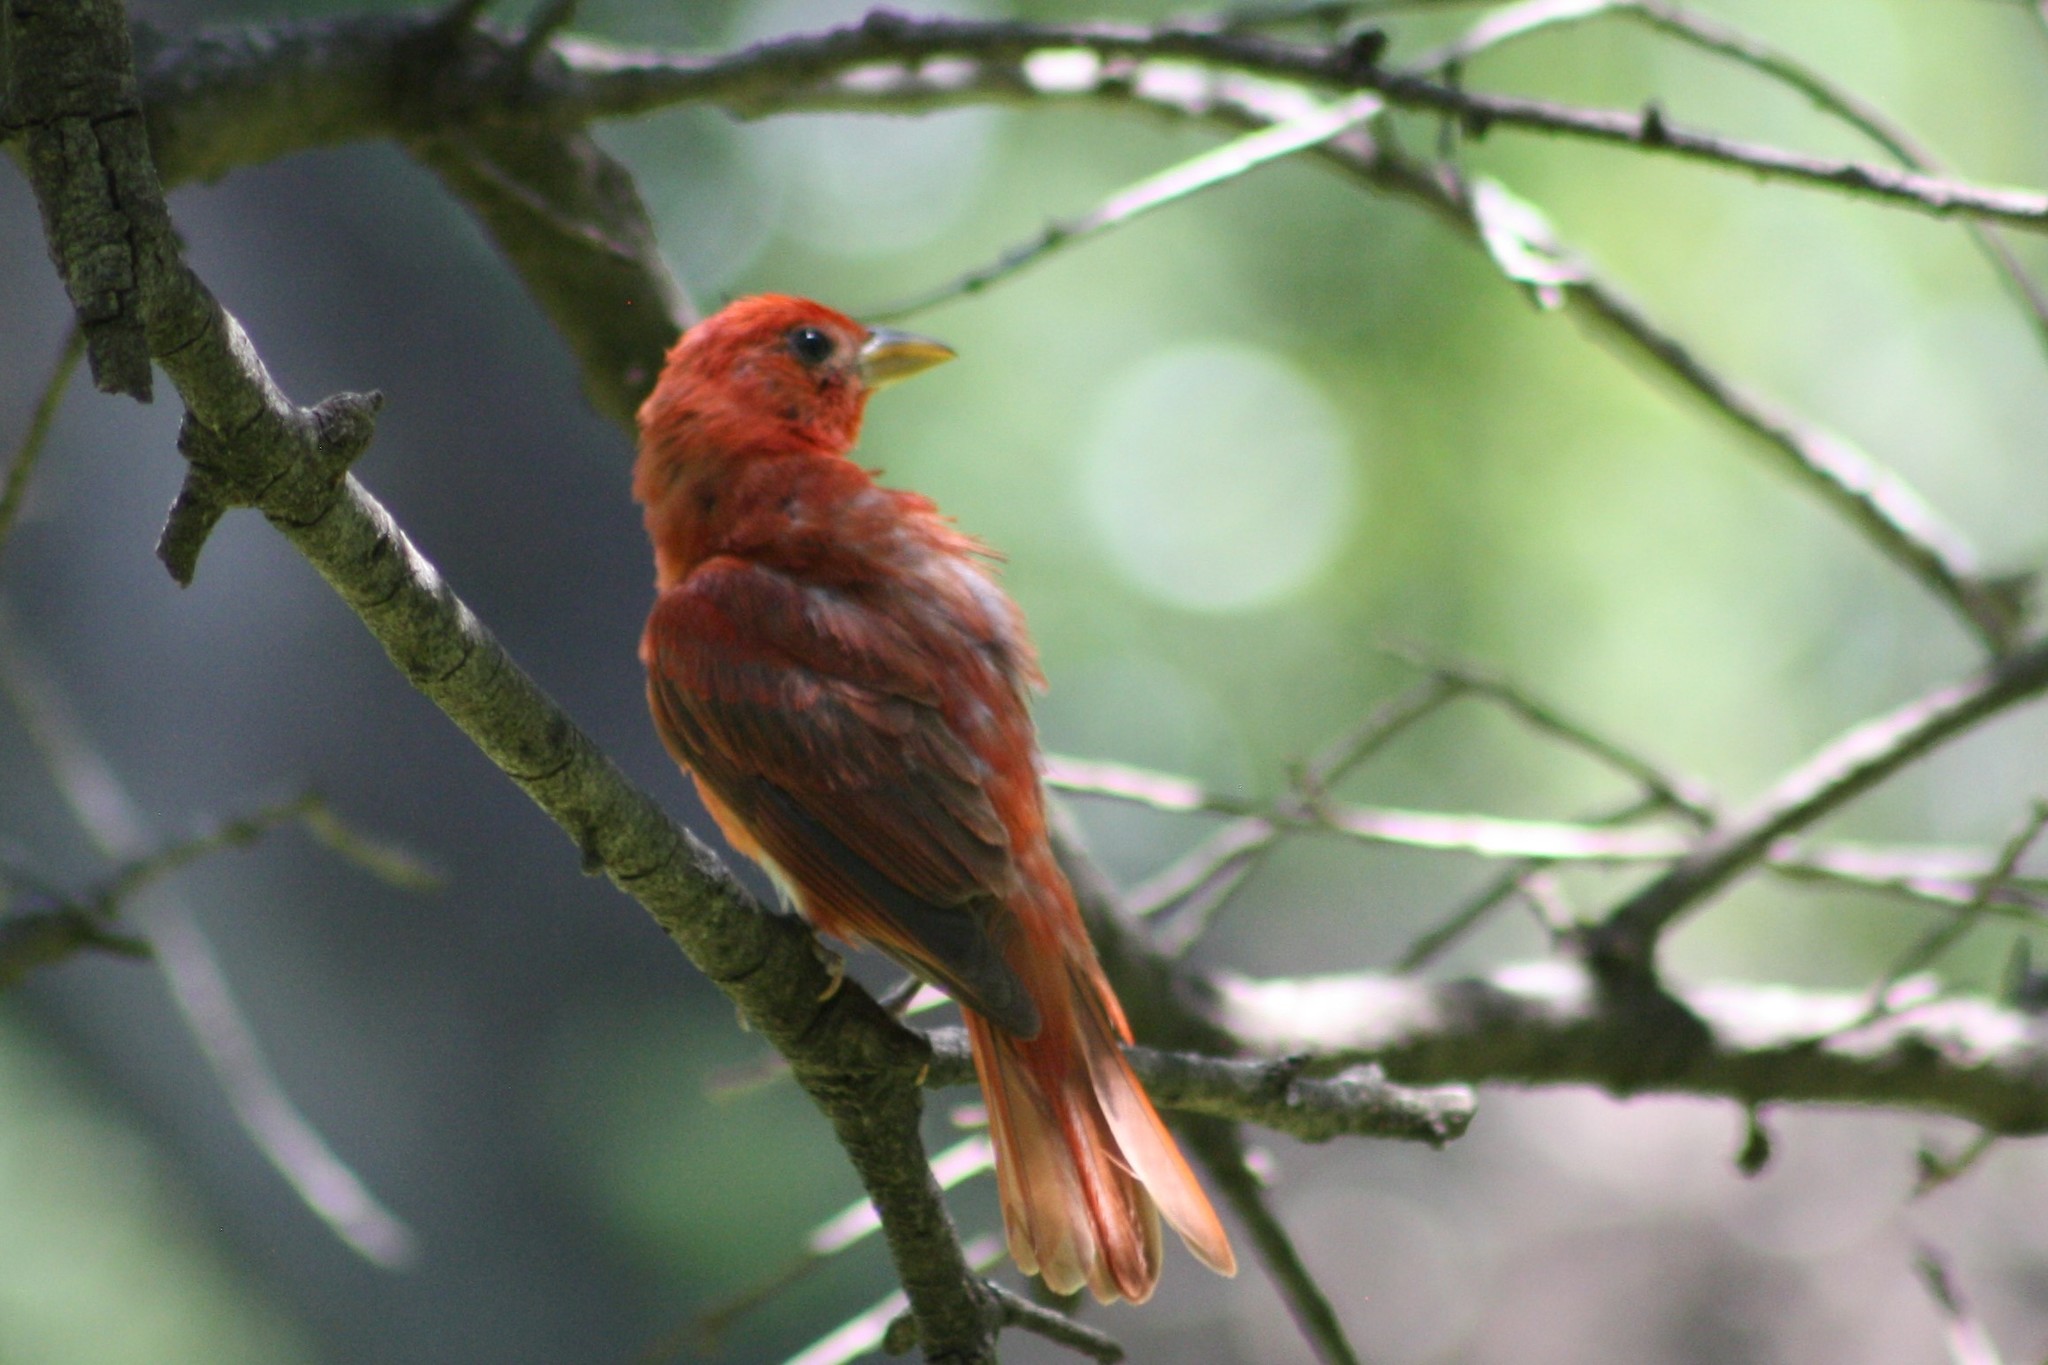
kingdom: Animalia
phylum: Chordata
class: Aves
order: Passeriformes
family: Cardinalidae
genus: Piranga
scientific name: Piranga rubra
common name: Summer tanager
